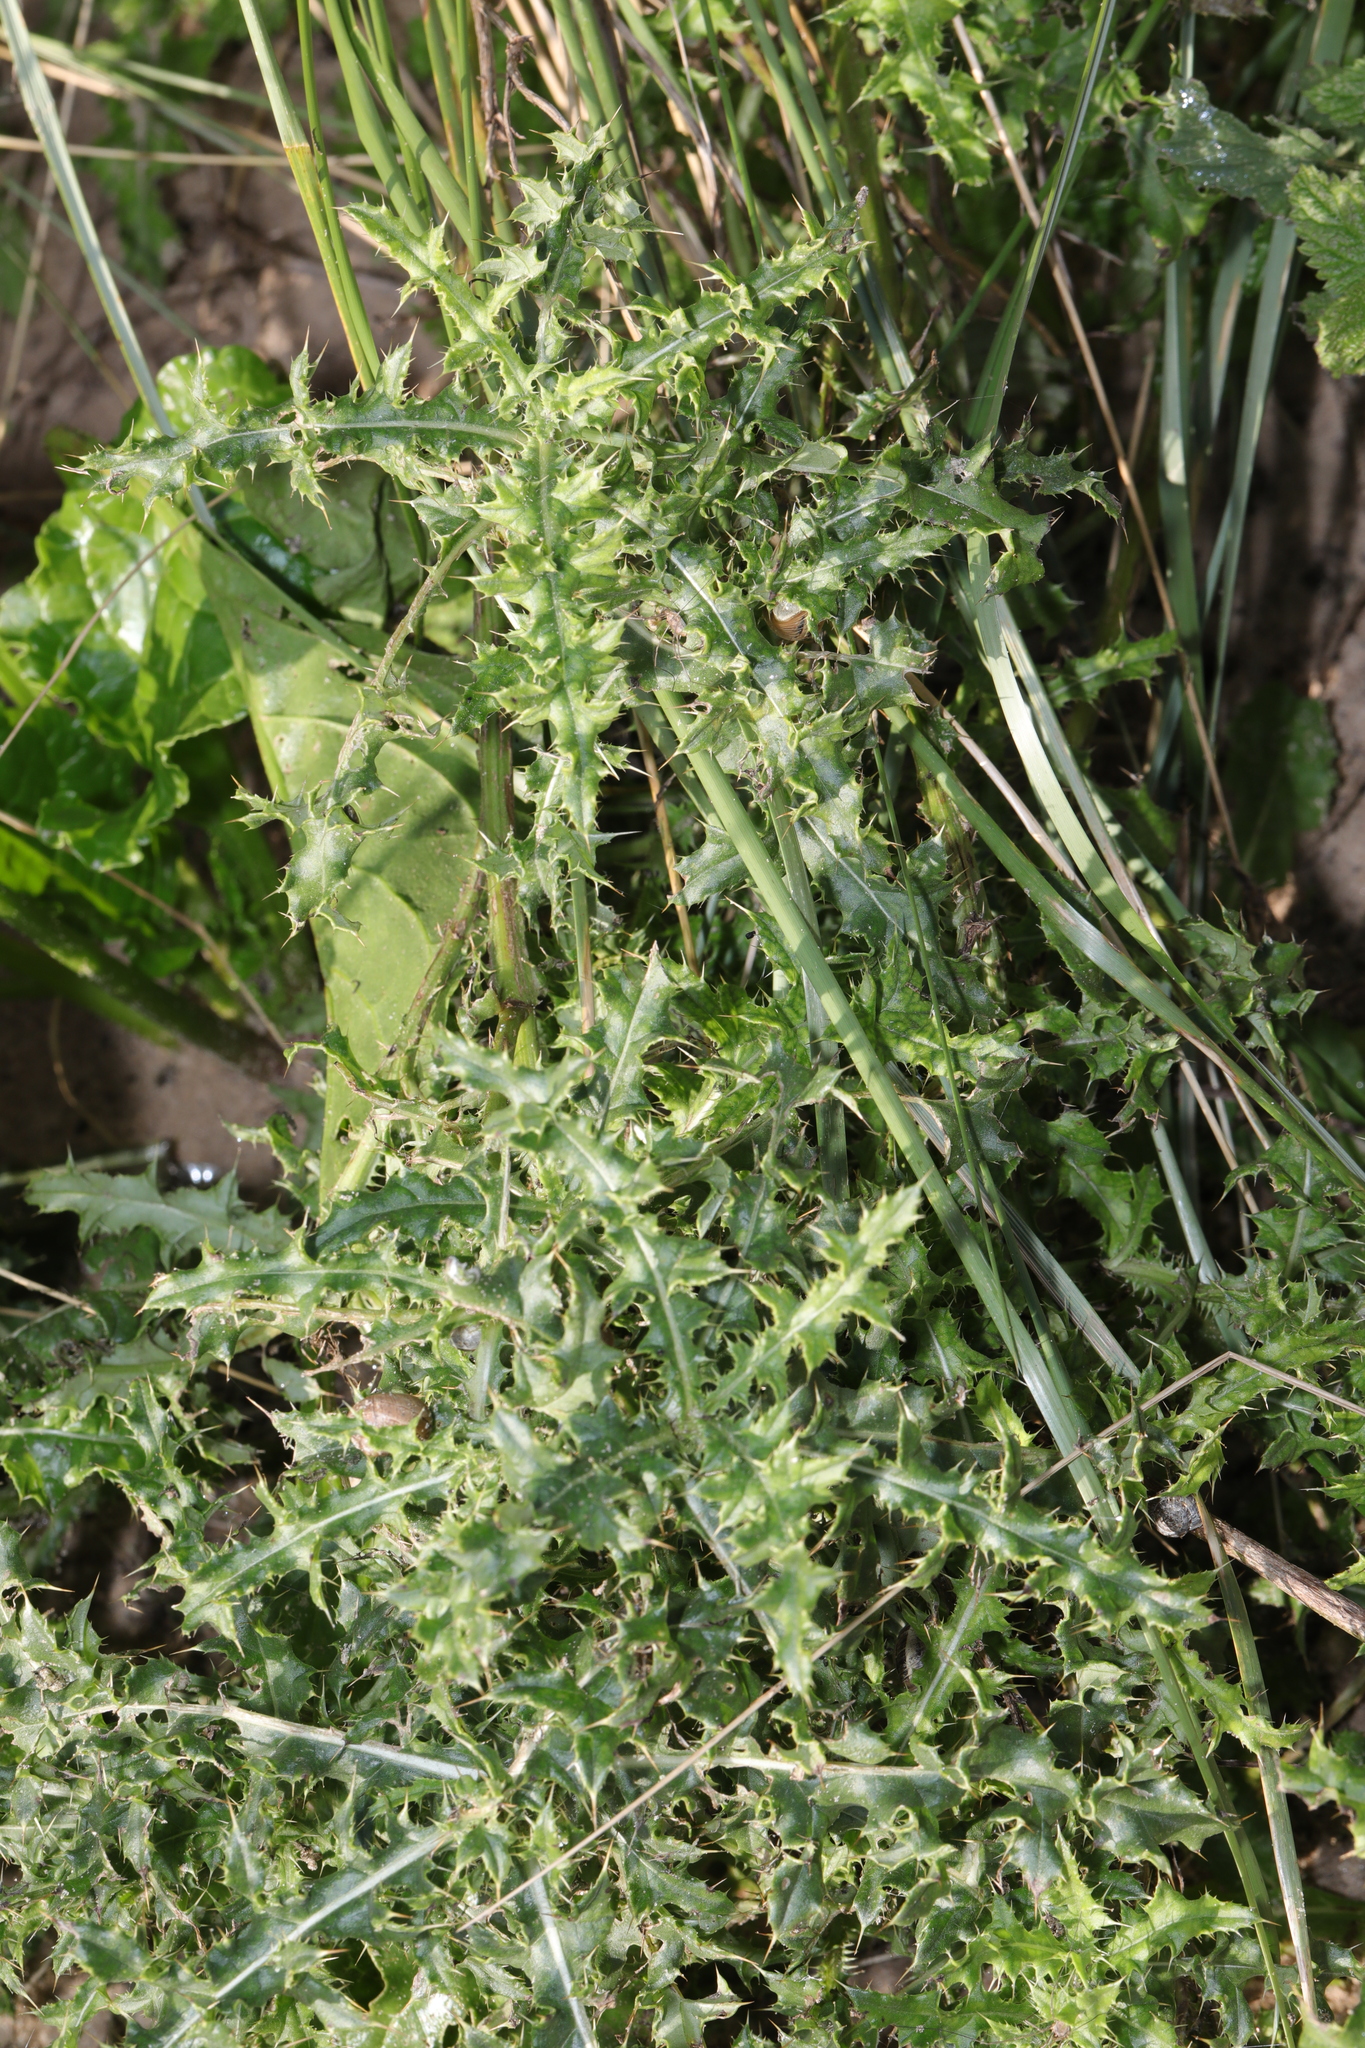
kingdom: Plantae
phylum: Tracheophyta
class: Magnoliopsida
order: Asterales
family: Asteraceae
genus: Cirsium
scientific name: Cirsium arvense
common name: Creeping thistle
